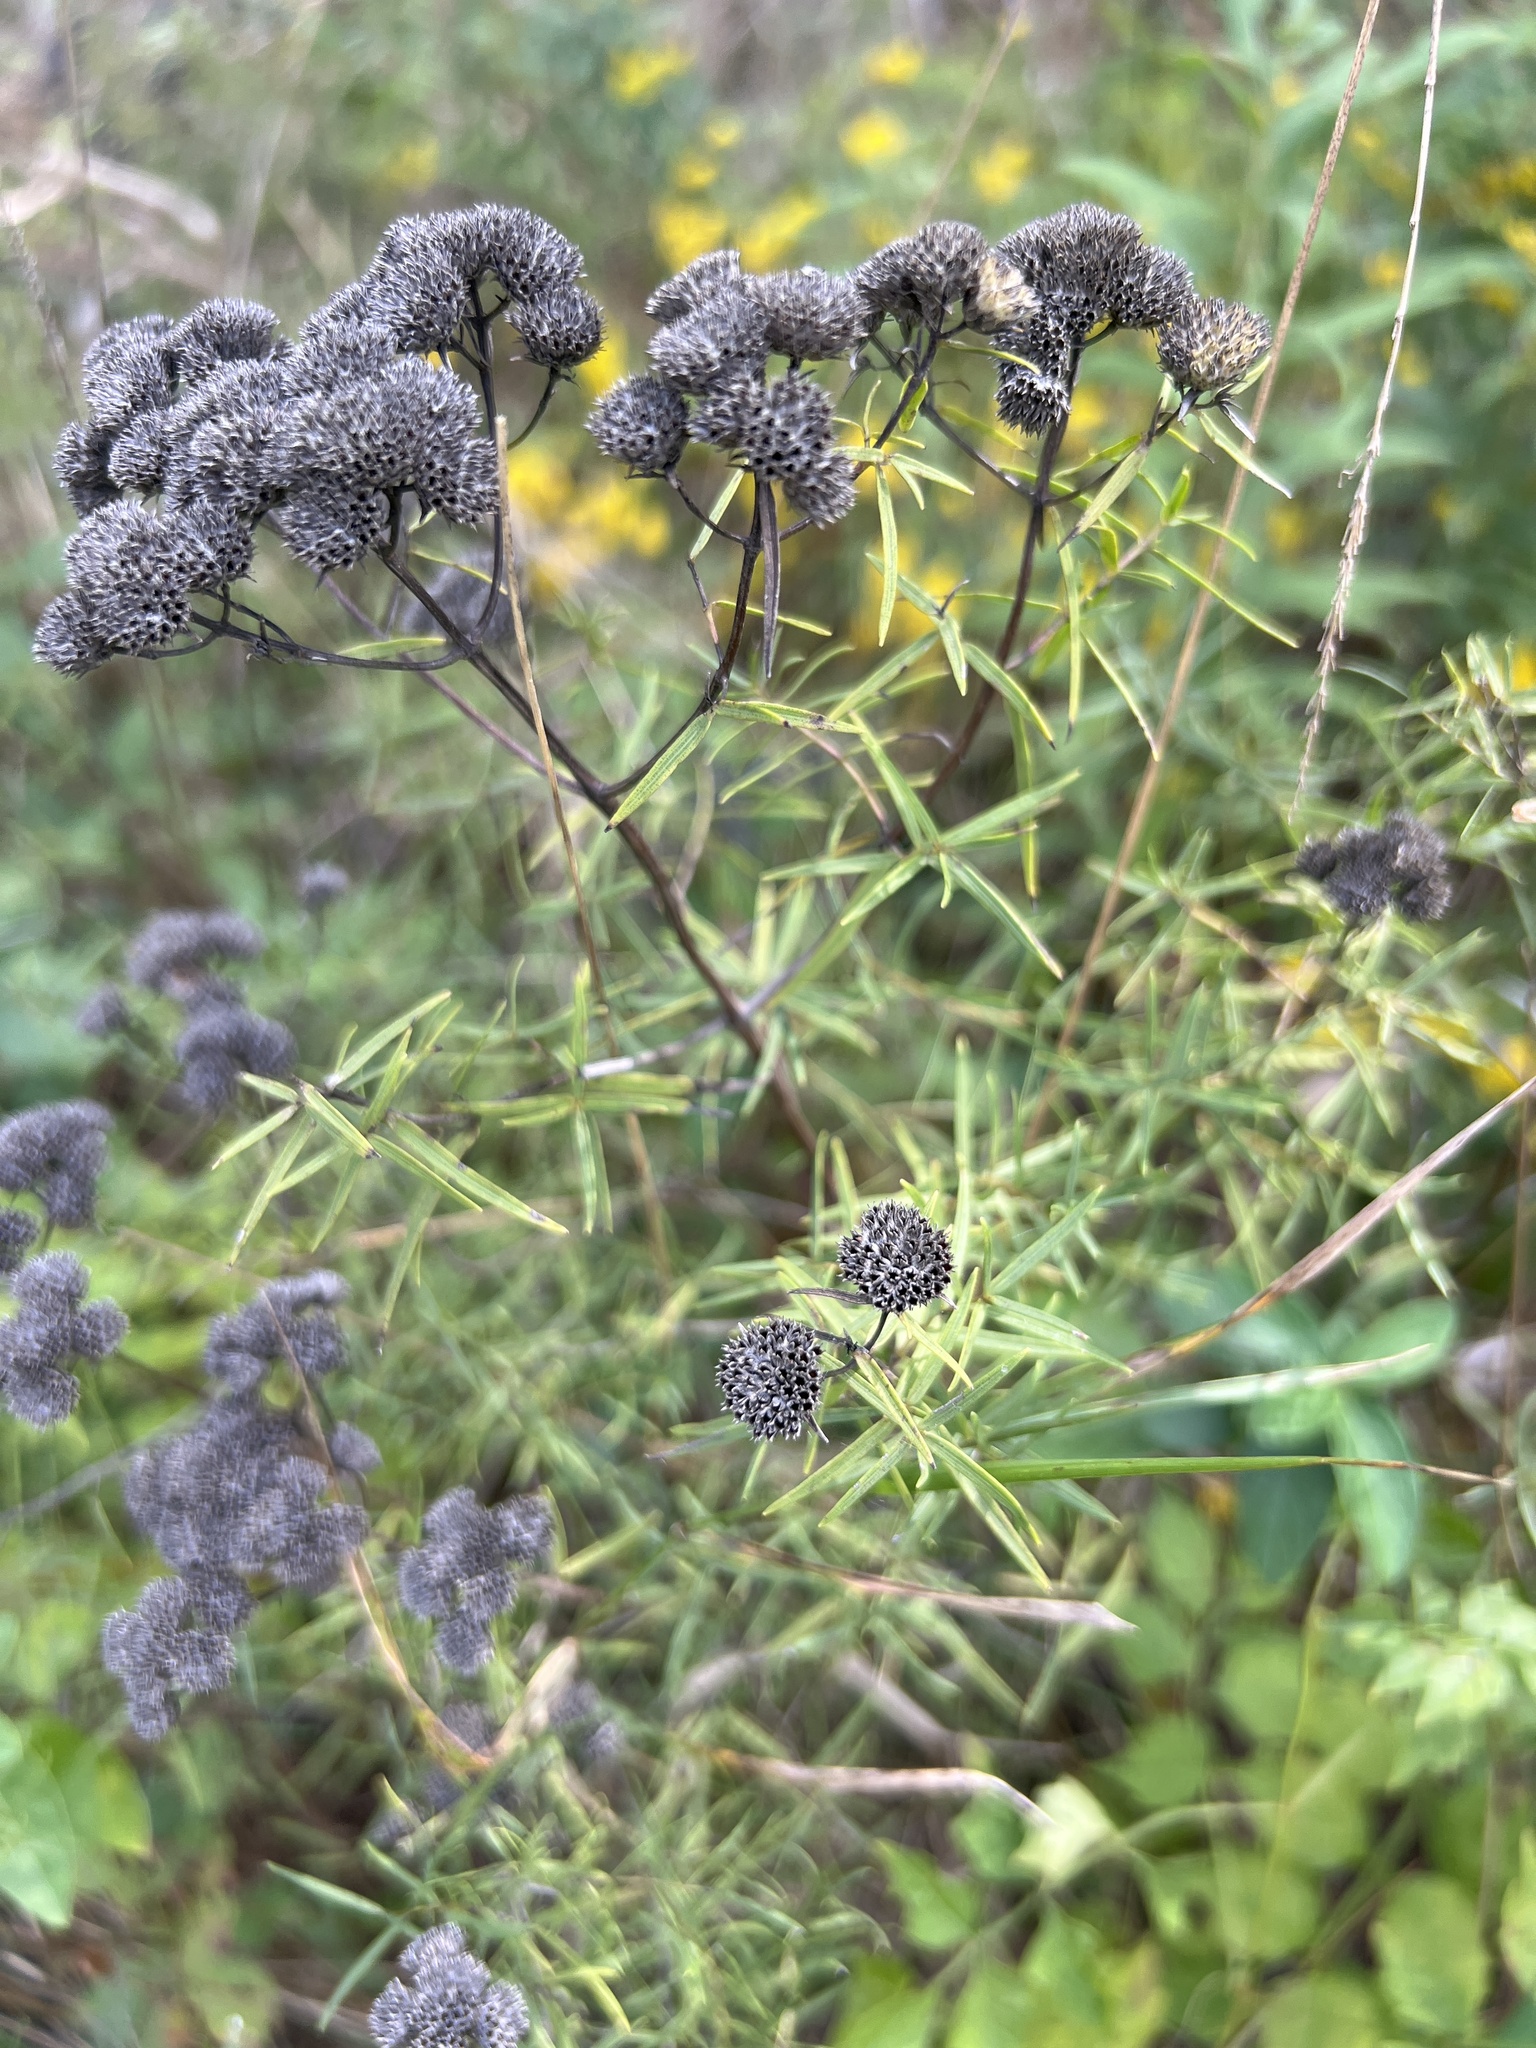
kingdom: Plantae
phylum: Tracheophyta
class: Magnoliopsida
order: Lamiales
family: Lamiaceae
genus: Pycnanthemum
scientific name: Pycnanthemum tenuifolium
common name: Narrow-leaf mountain-mint
